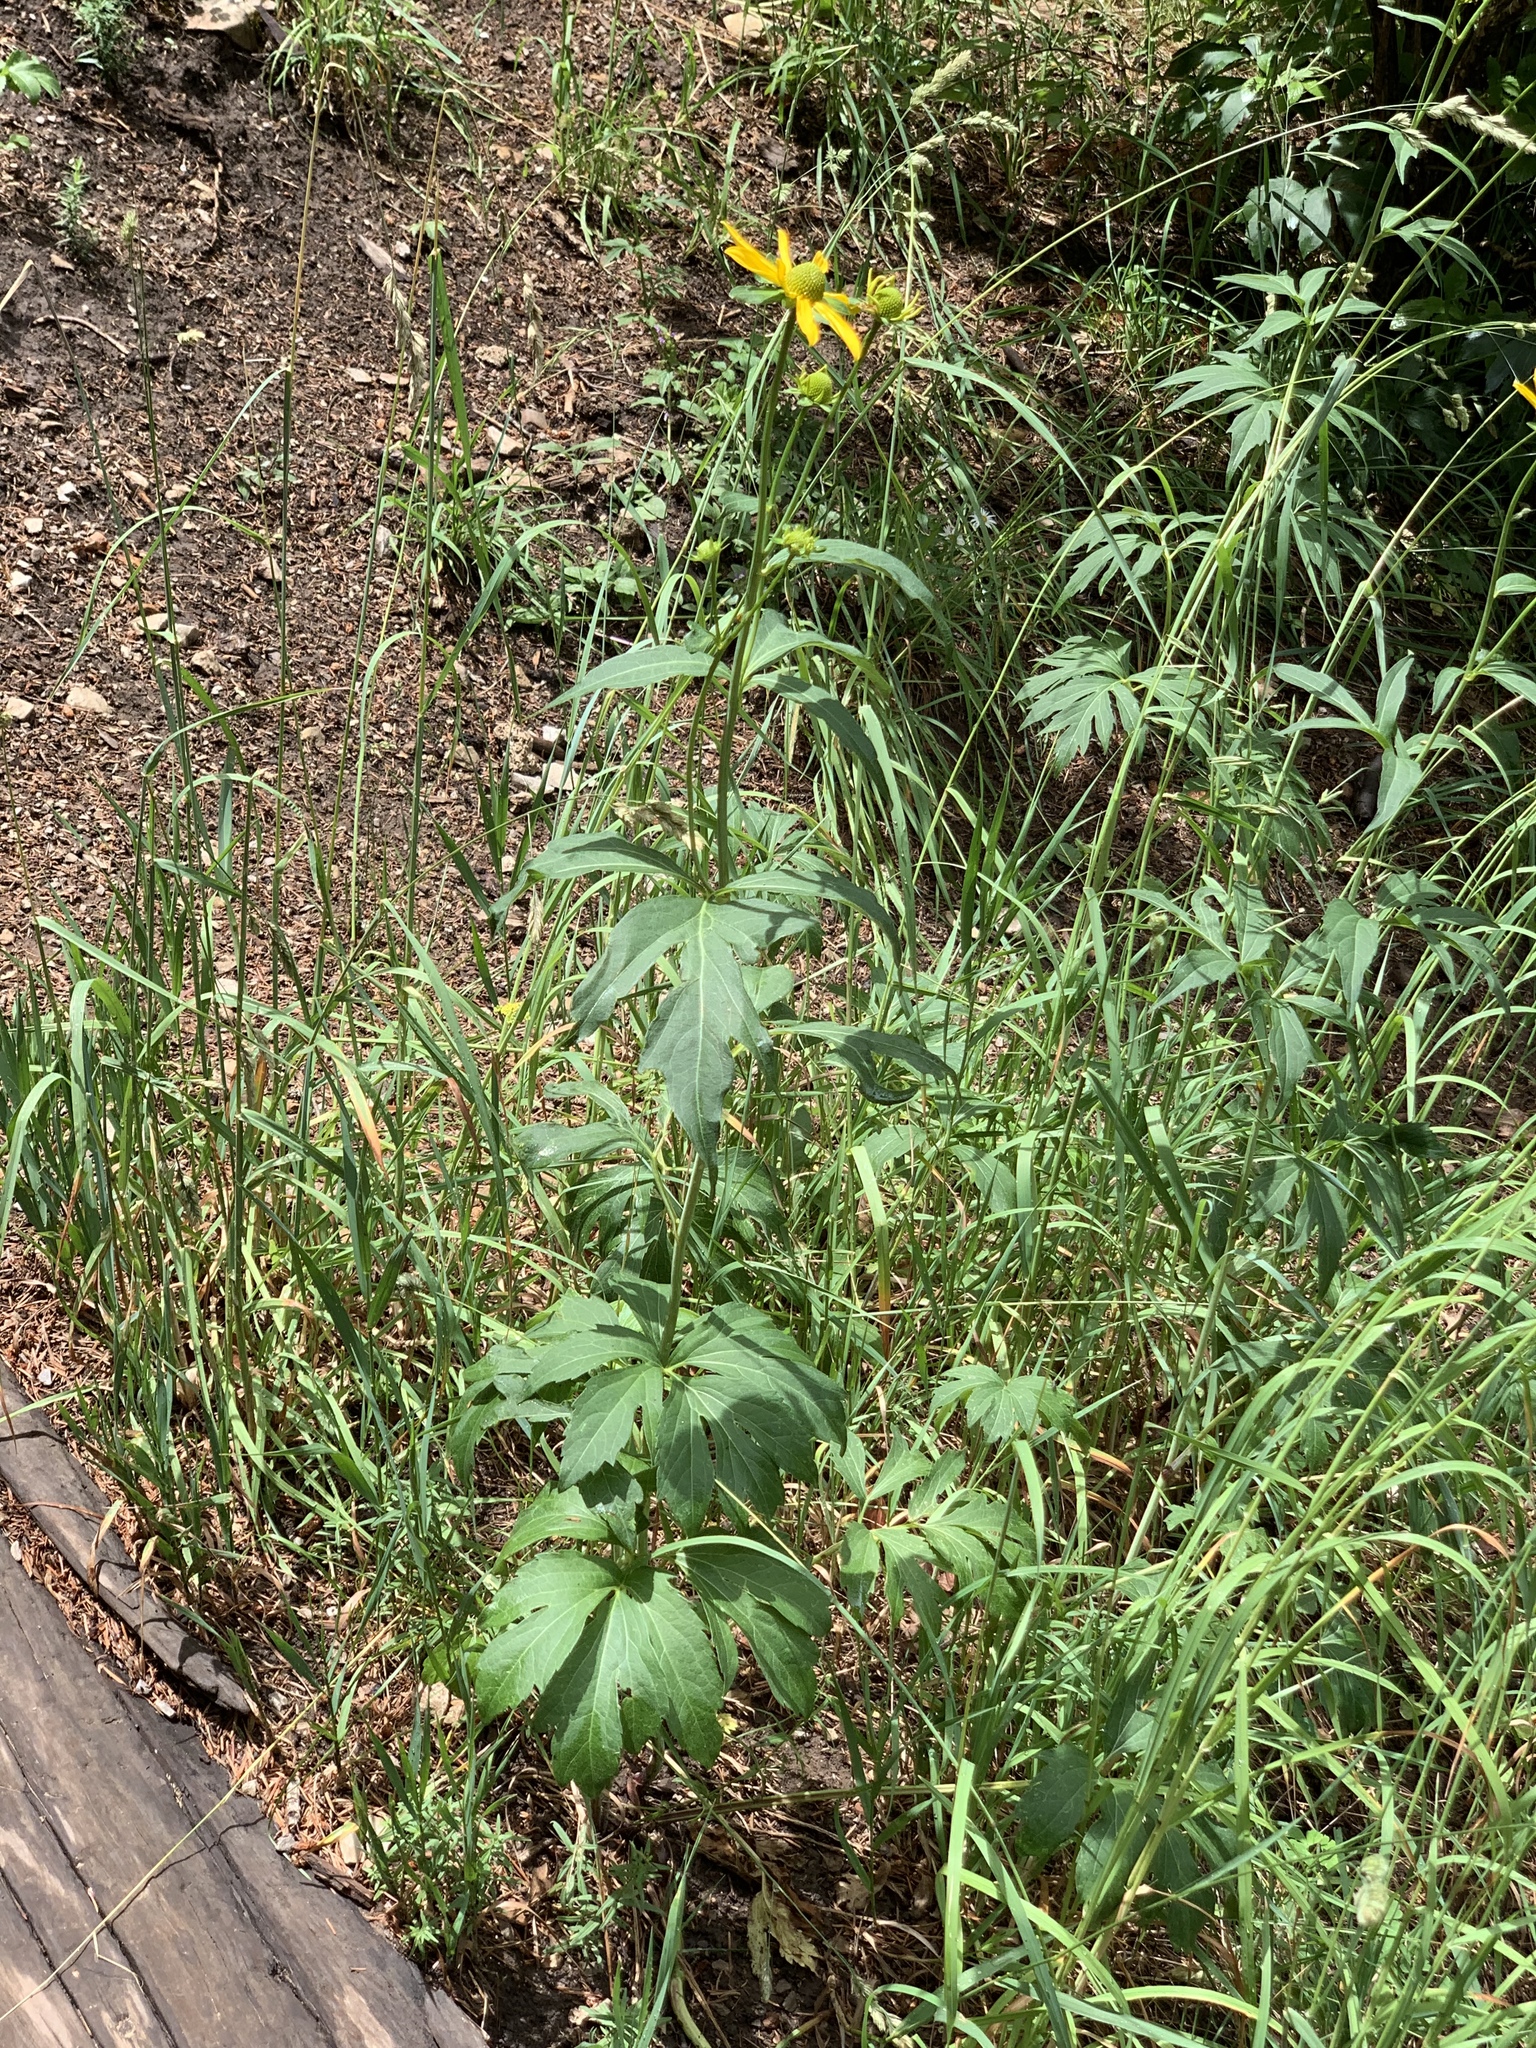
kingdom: Plantae
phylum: Tracheophyta
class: Magnoliopsida
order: Asterales
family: Asteraceae
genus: Rudbeckia
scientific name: Rudbeckia laciniata
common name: Coneflower
